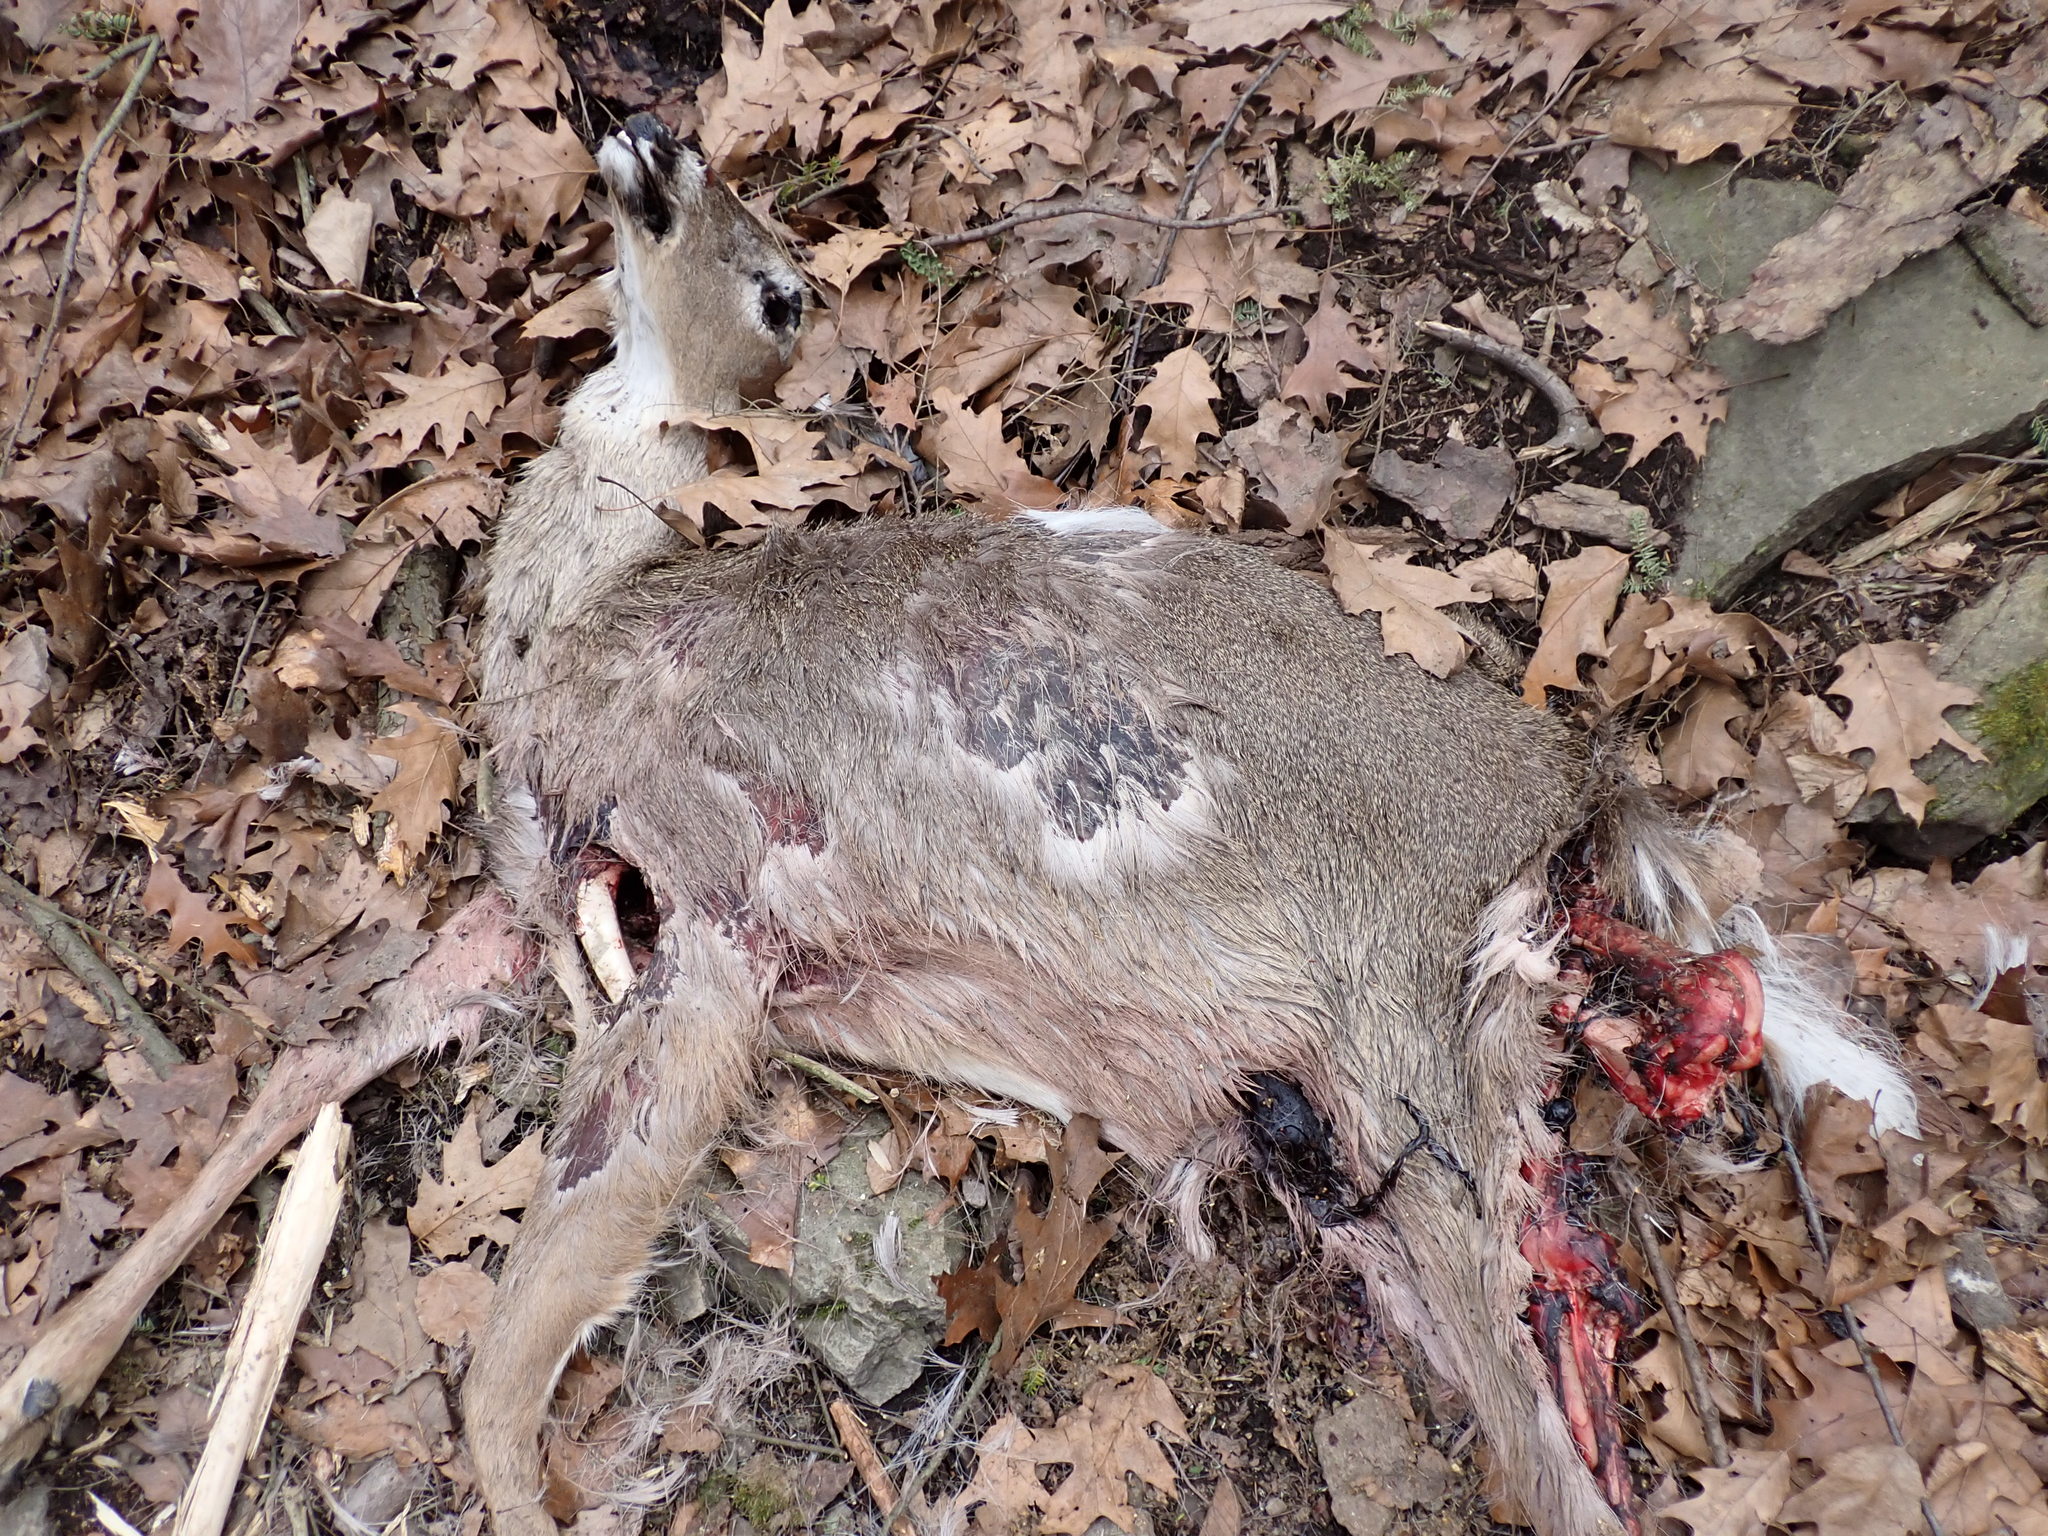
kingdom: Animalia
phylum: Chordata
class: Mammalia
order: Artiodactyla
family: Cervidae
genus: Odocoileus
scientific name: Odocoileus virginianus
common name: White-tailed deer
